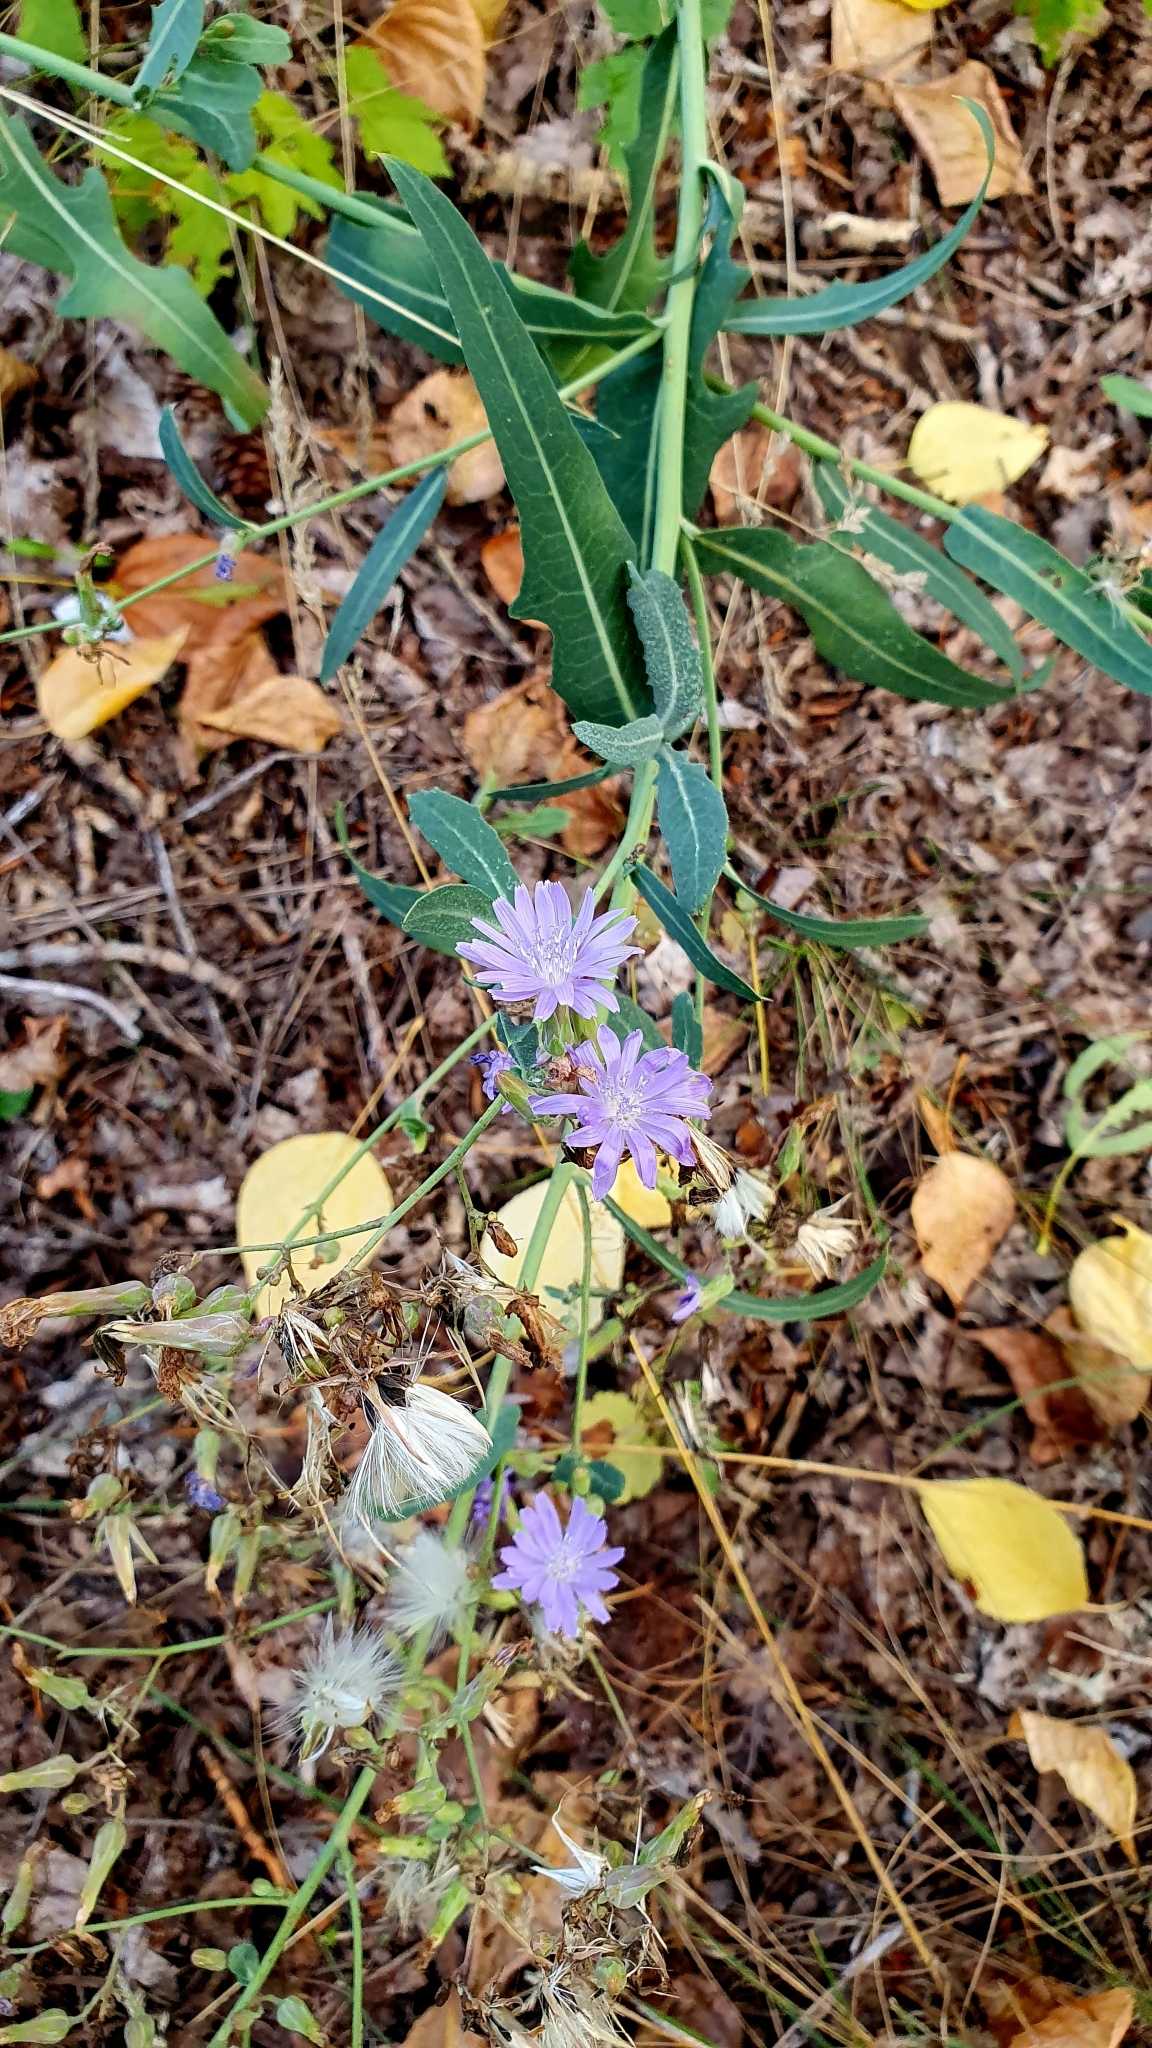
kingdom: Plantae
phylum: Tracheophyta
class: Magnoliopsida
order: Asterales
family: Asteraceae
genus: Lactuca
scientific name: Lactuca tatarica
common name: Blue lettuce
